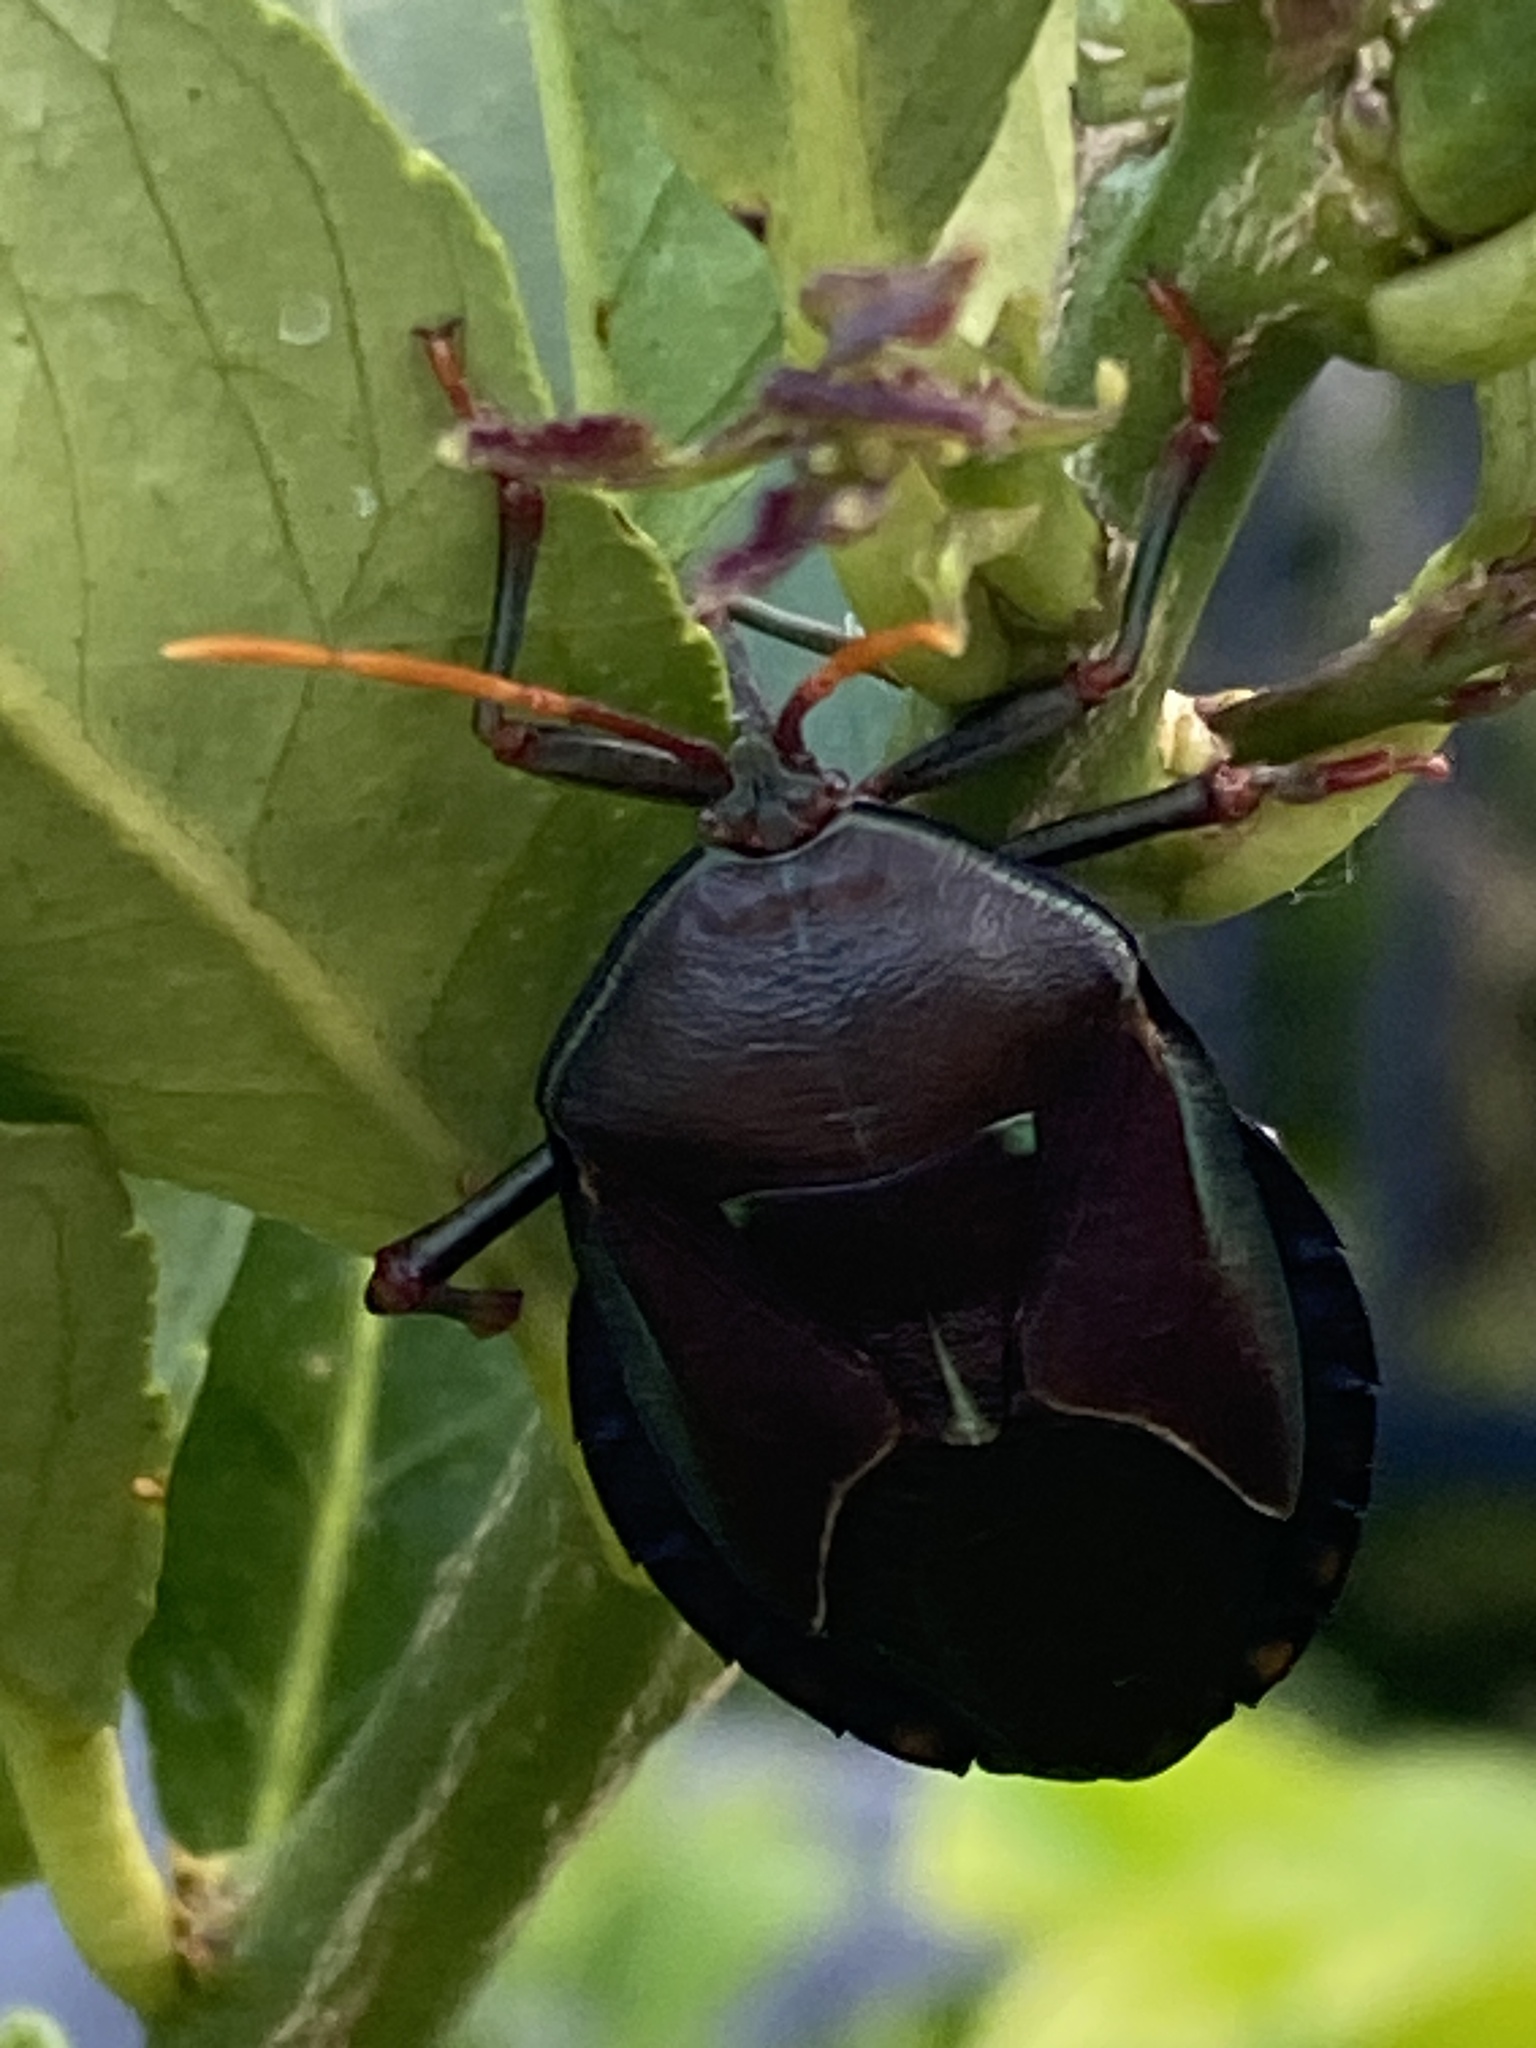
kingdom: Animalia
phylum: Arthropoda
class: Insecta
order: Hemiptera
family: Tessaratomidae
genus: Musgraveia
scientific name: Musgraveia sulciventris
